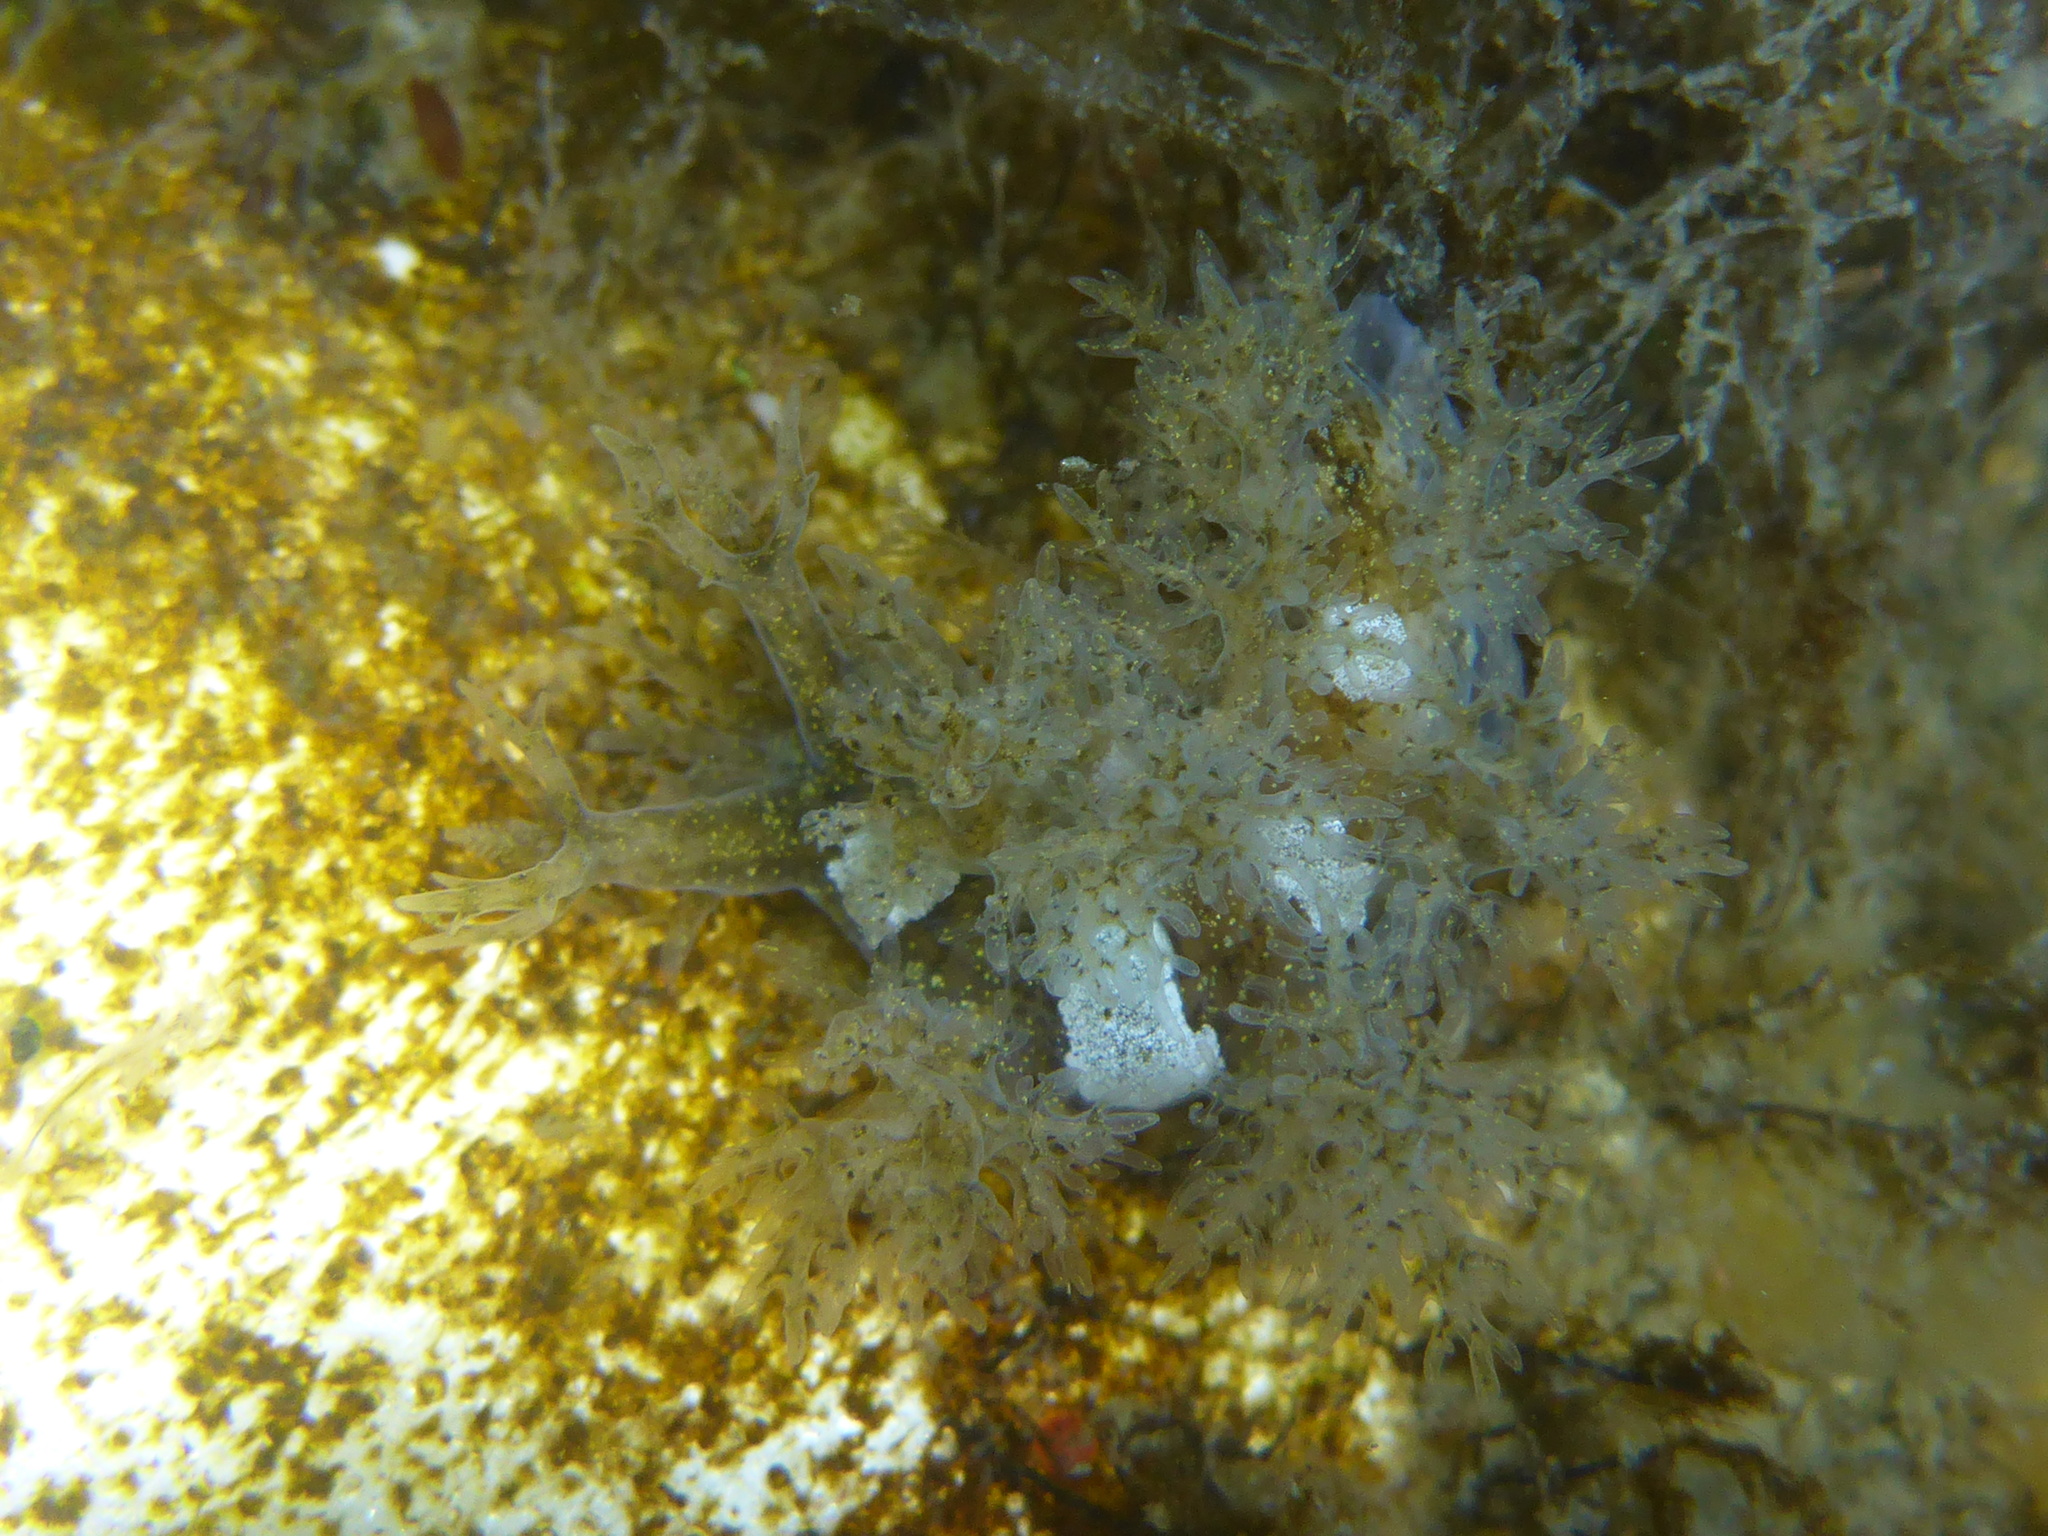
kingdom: Animalia
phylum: Mollusca
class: Gastropoda
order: Nudibranchia
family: Dendronotidae
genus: Dendronotus
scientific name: Dendronotus venustus
